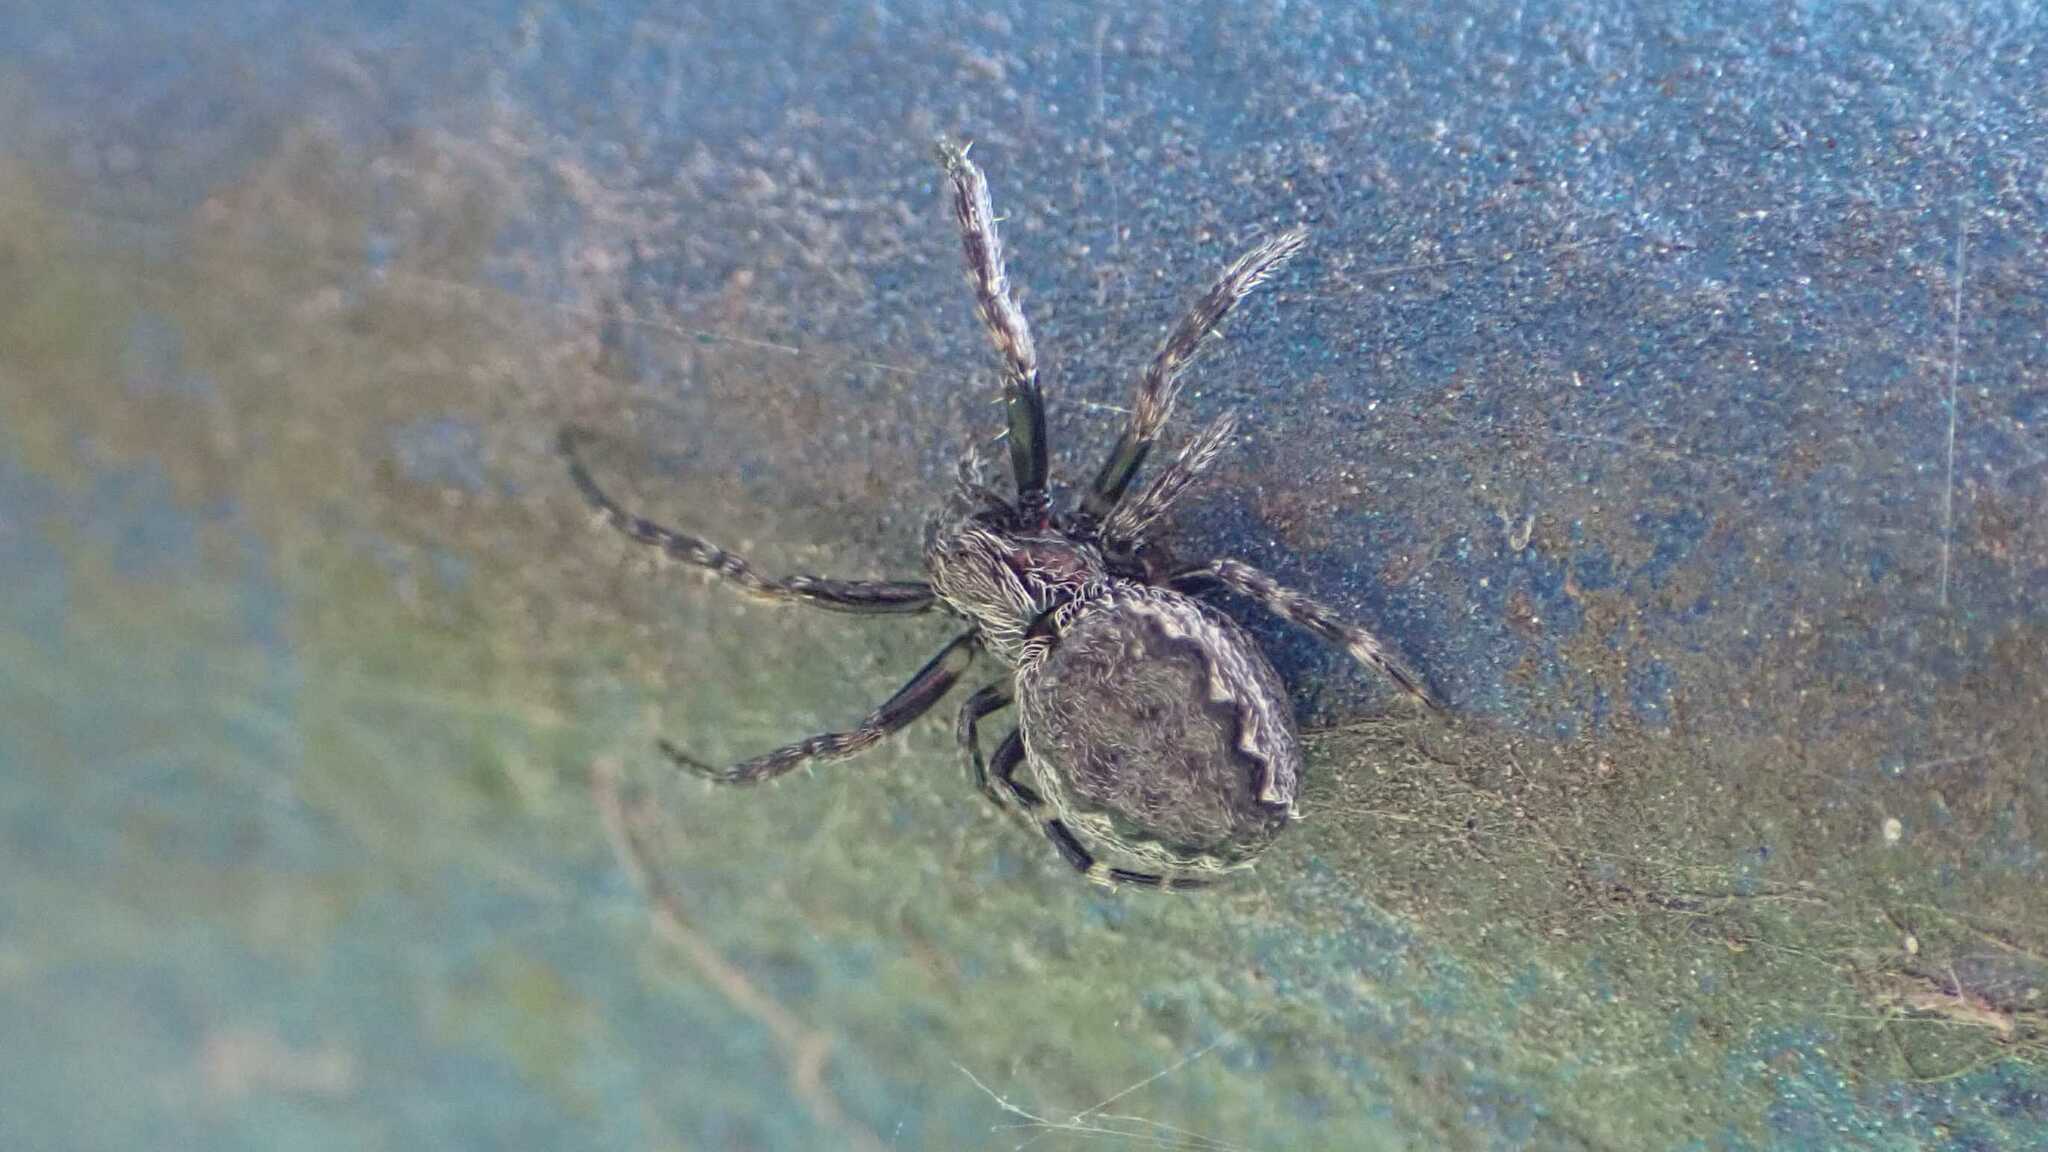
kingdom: Animalia
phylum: Arthropoda
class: Arachnida
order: Araneae
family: Araneidae
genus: Nuctenea
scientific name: Nuctenea umbratica
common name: Toad spider
